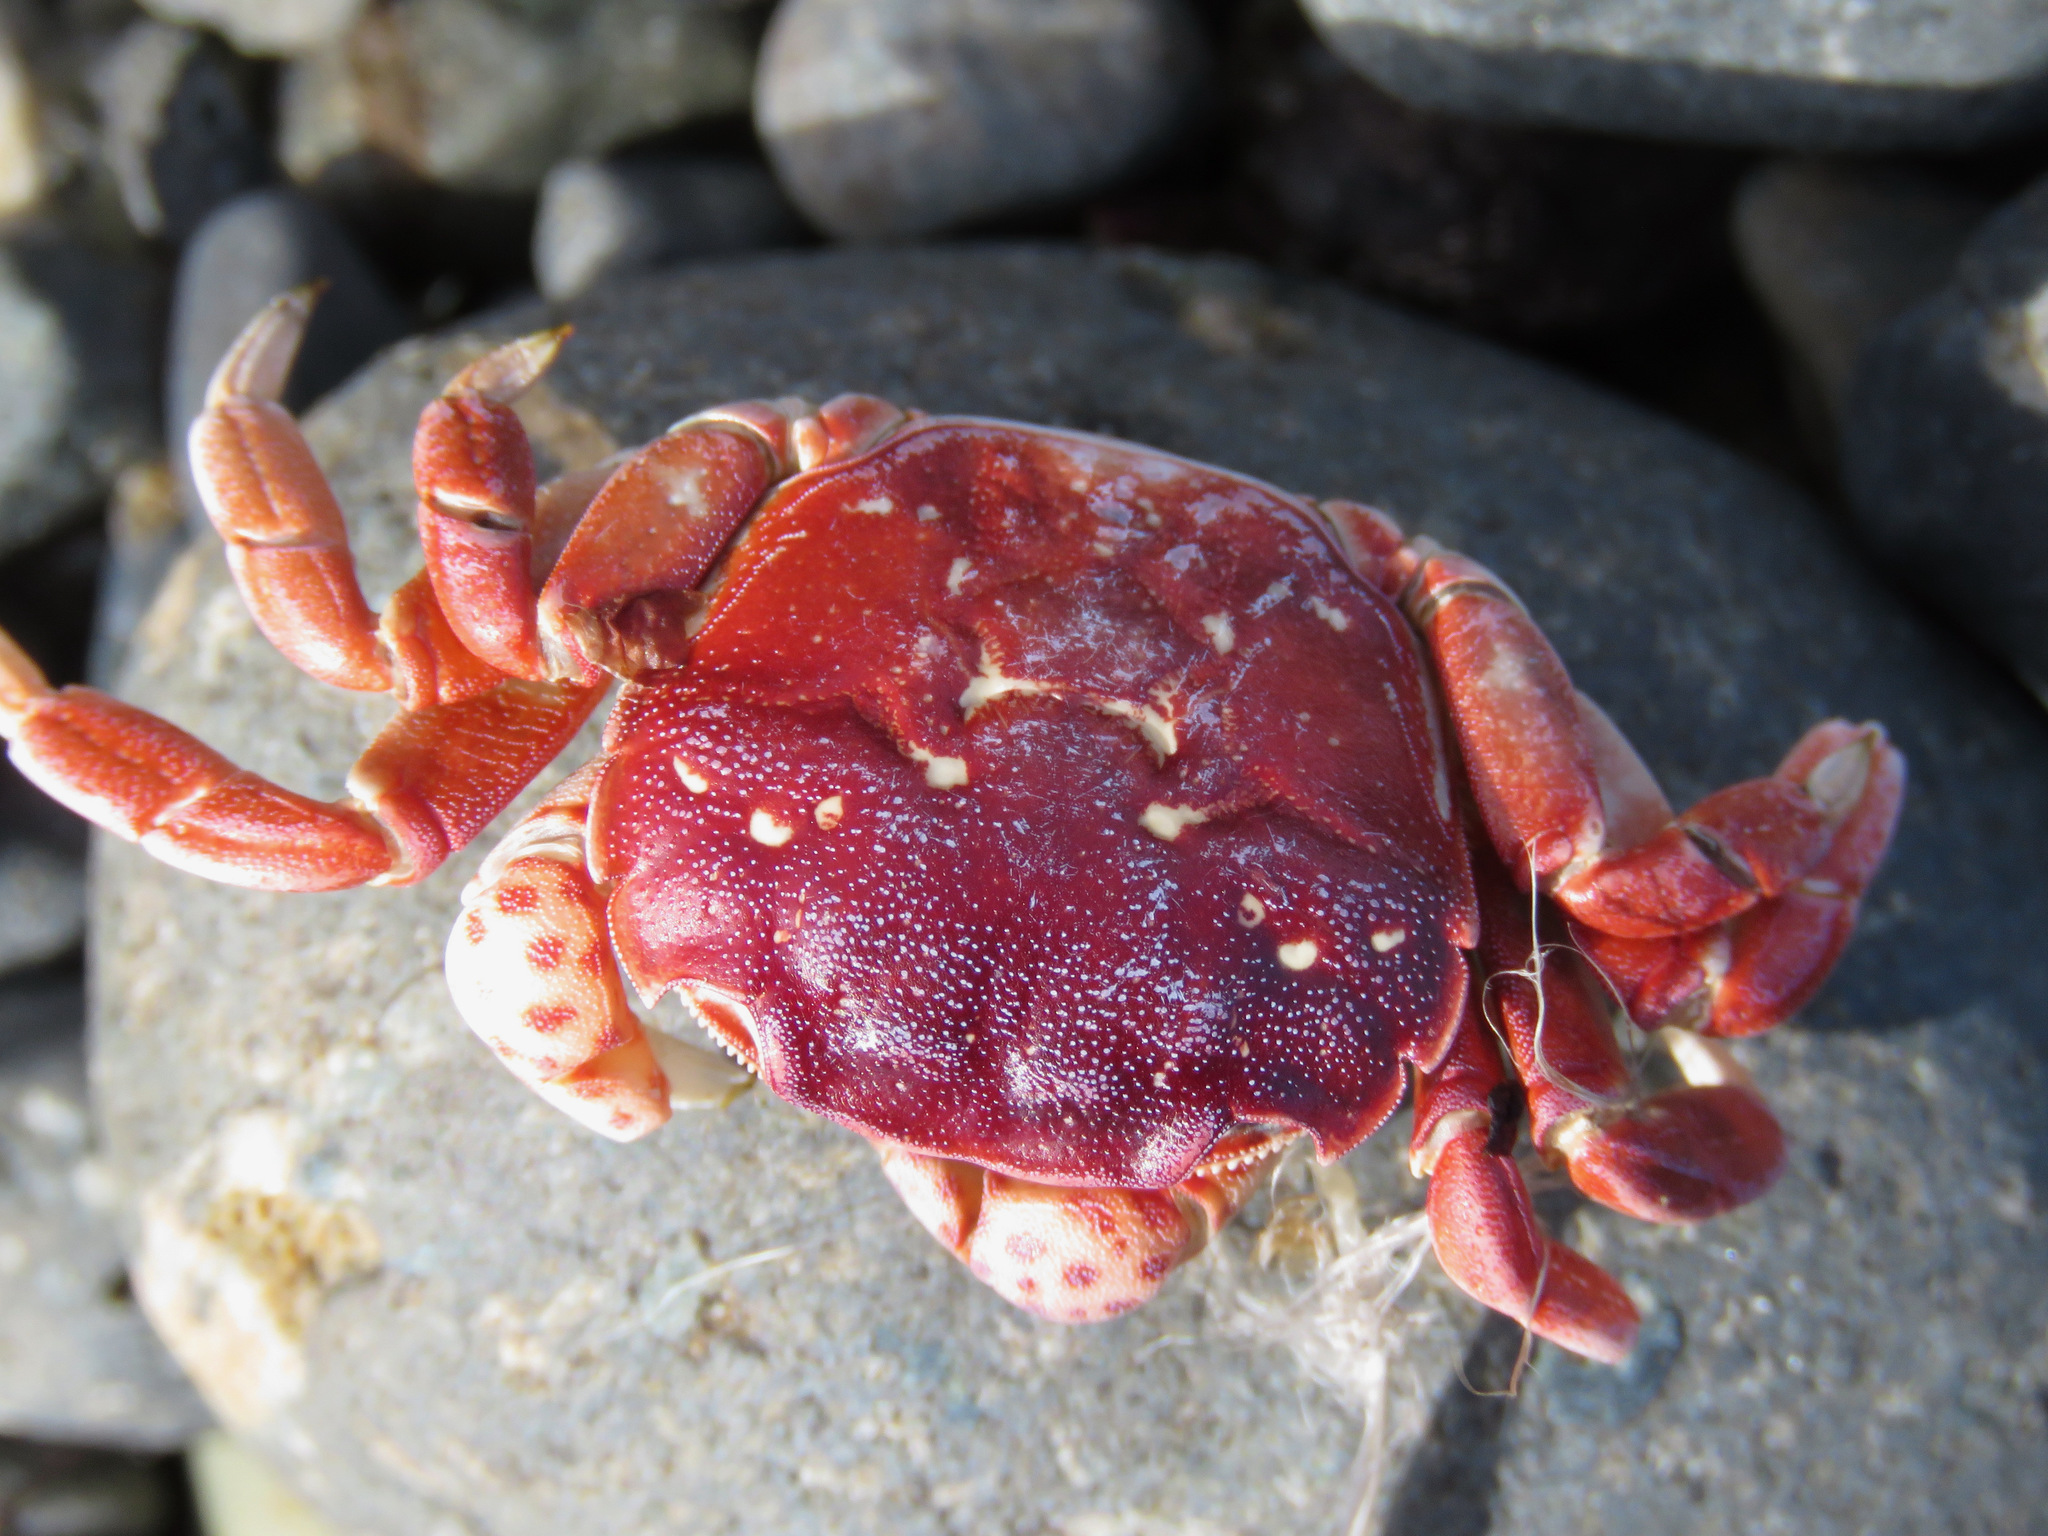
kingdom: Animalia
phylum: Arthropoda
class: Malacostraca
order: Decapoda
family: Varunidae
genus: Hemigrapsus
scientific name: Hemigrapsus nudus
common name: Purple shore crab
